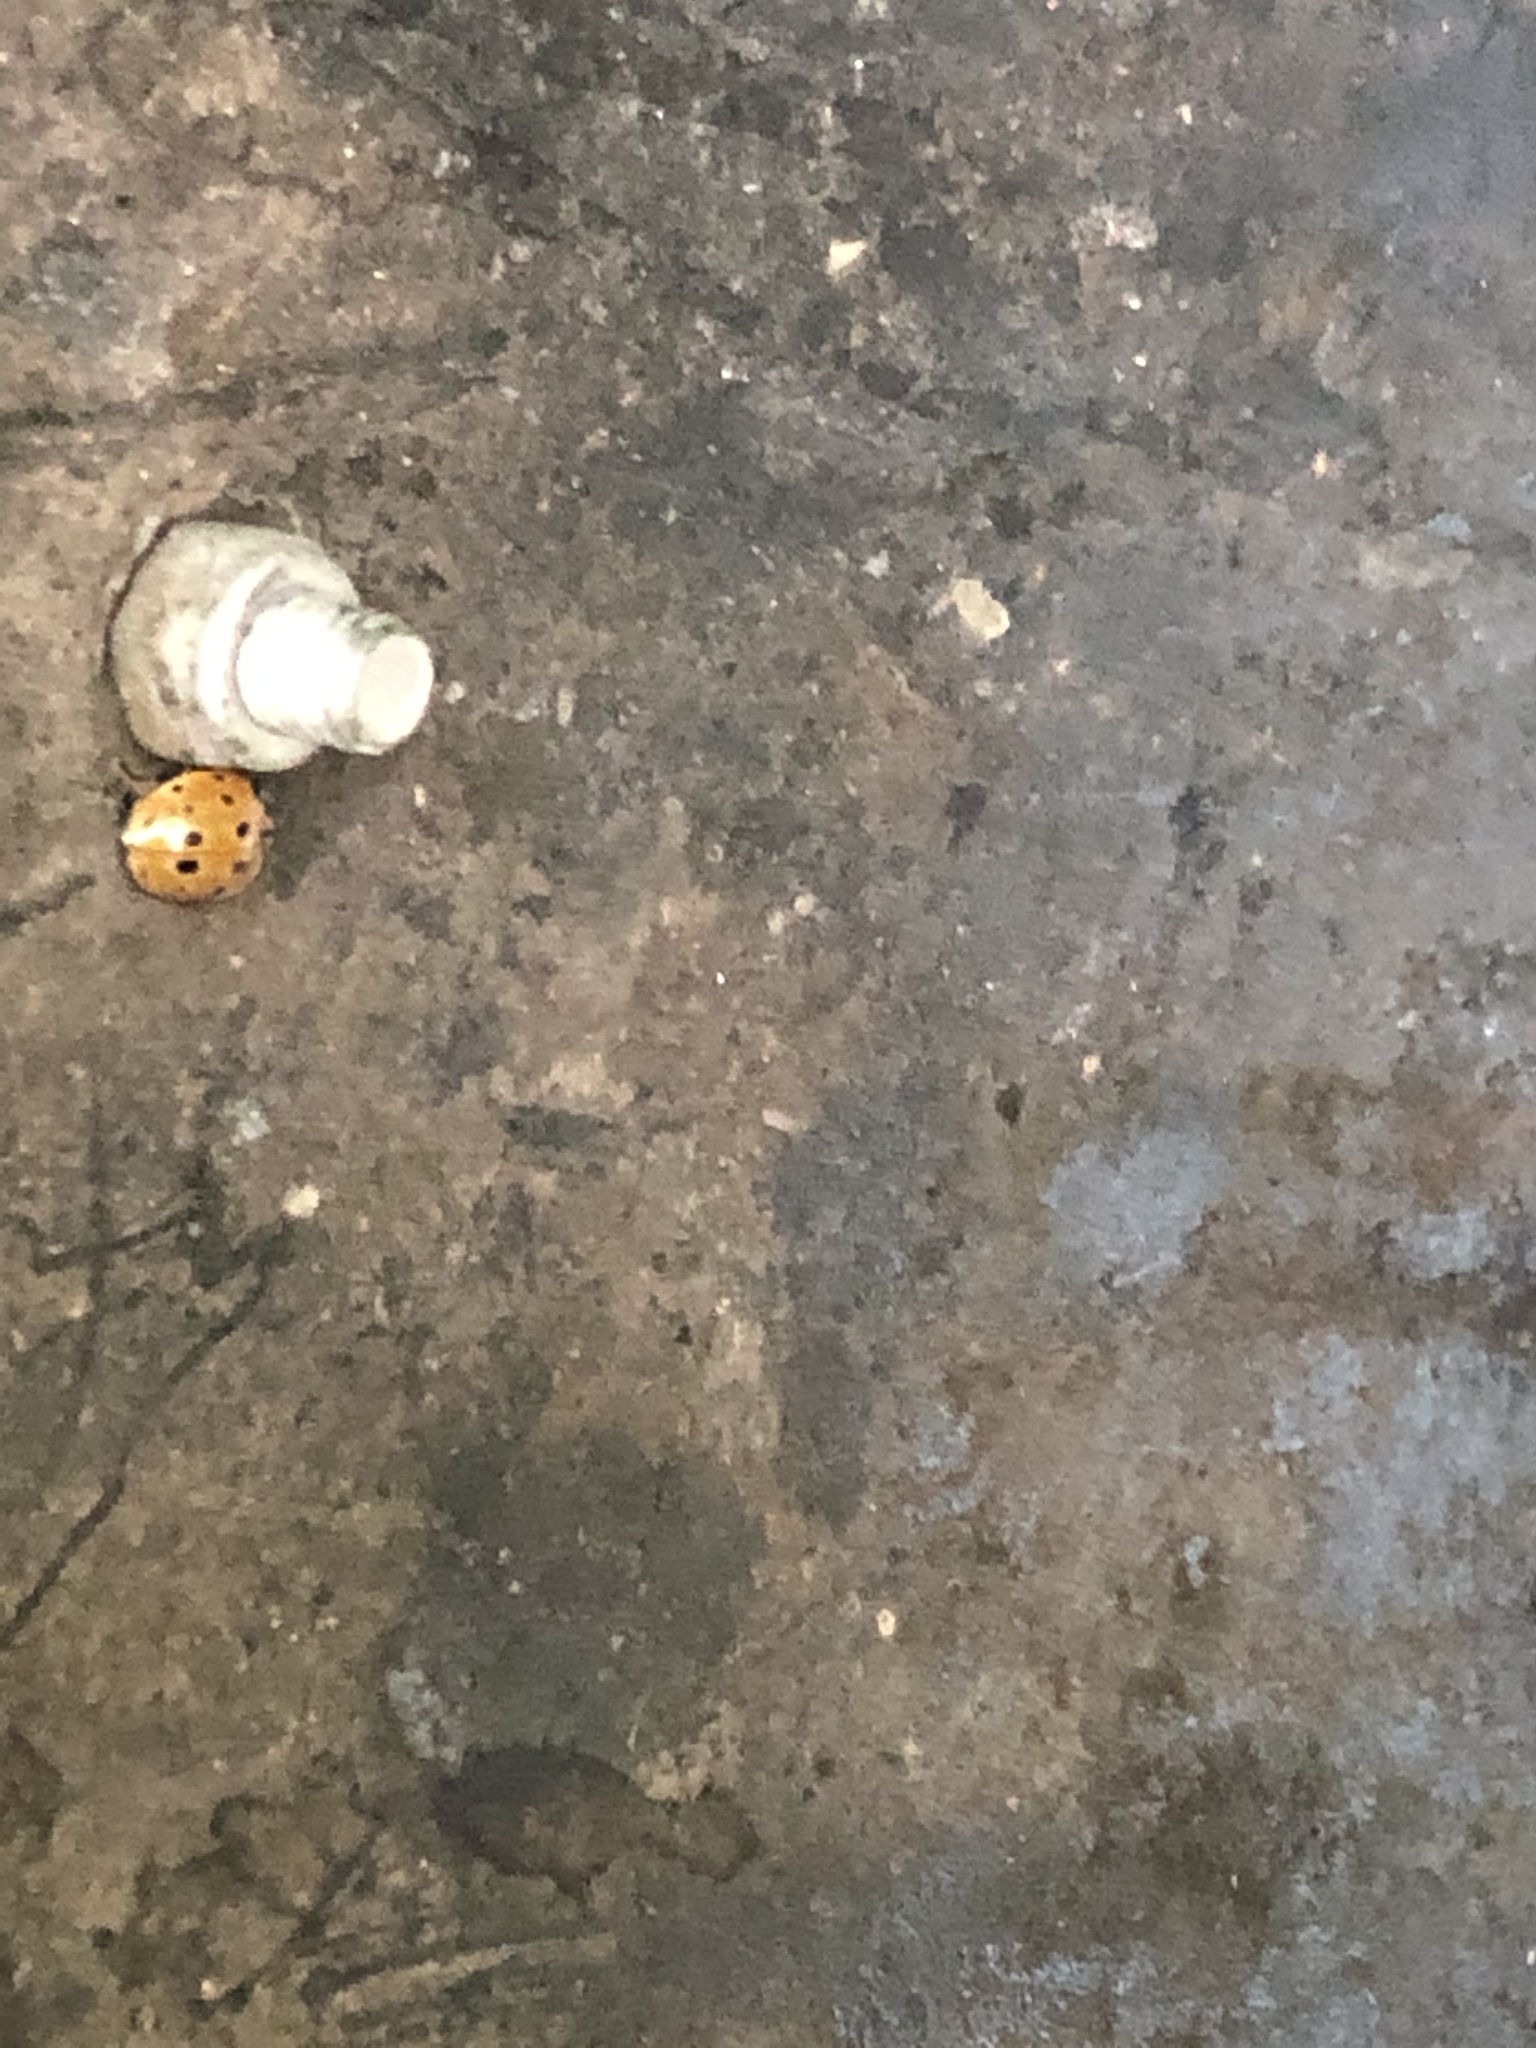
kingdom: Animalia
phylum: Arthropoda
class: Insecta
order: Coleoptera
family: Coccinellidae
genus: Anatis
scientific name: Anatis ocellata
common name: Eyed ladybird
